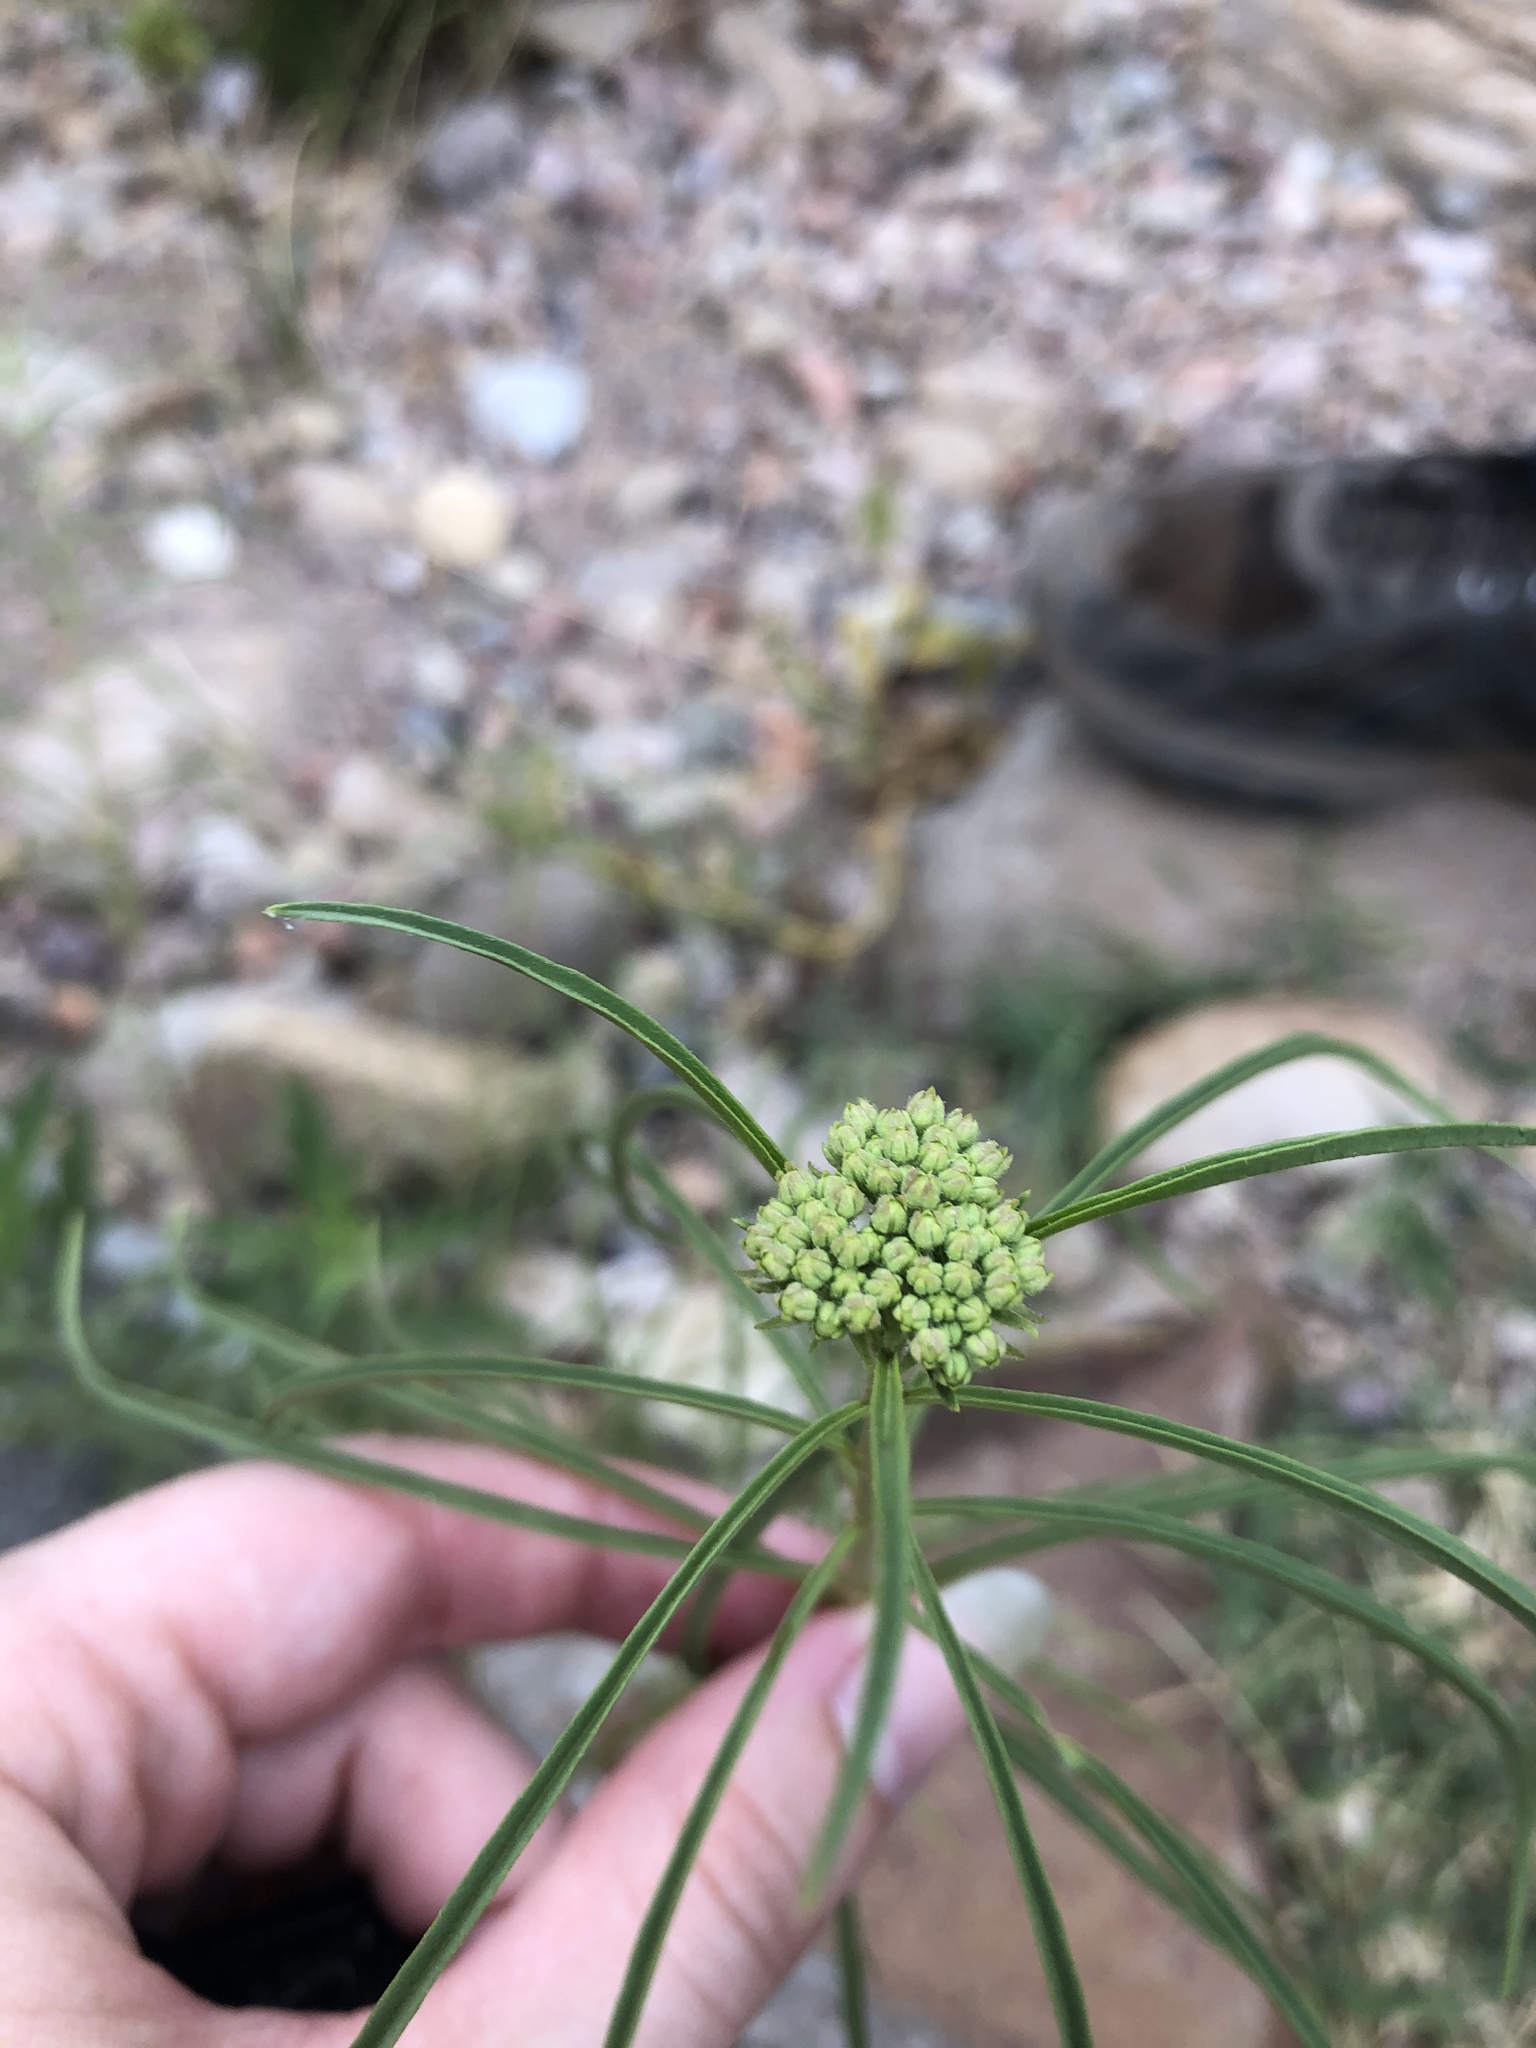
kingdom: Plantae
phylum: Tracheophyta
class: Magnoliopsida
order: Gentianales
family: Apocynaceae
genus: Asclepias
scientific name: Asclepias fascicularis
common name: Mexican milkweed
